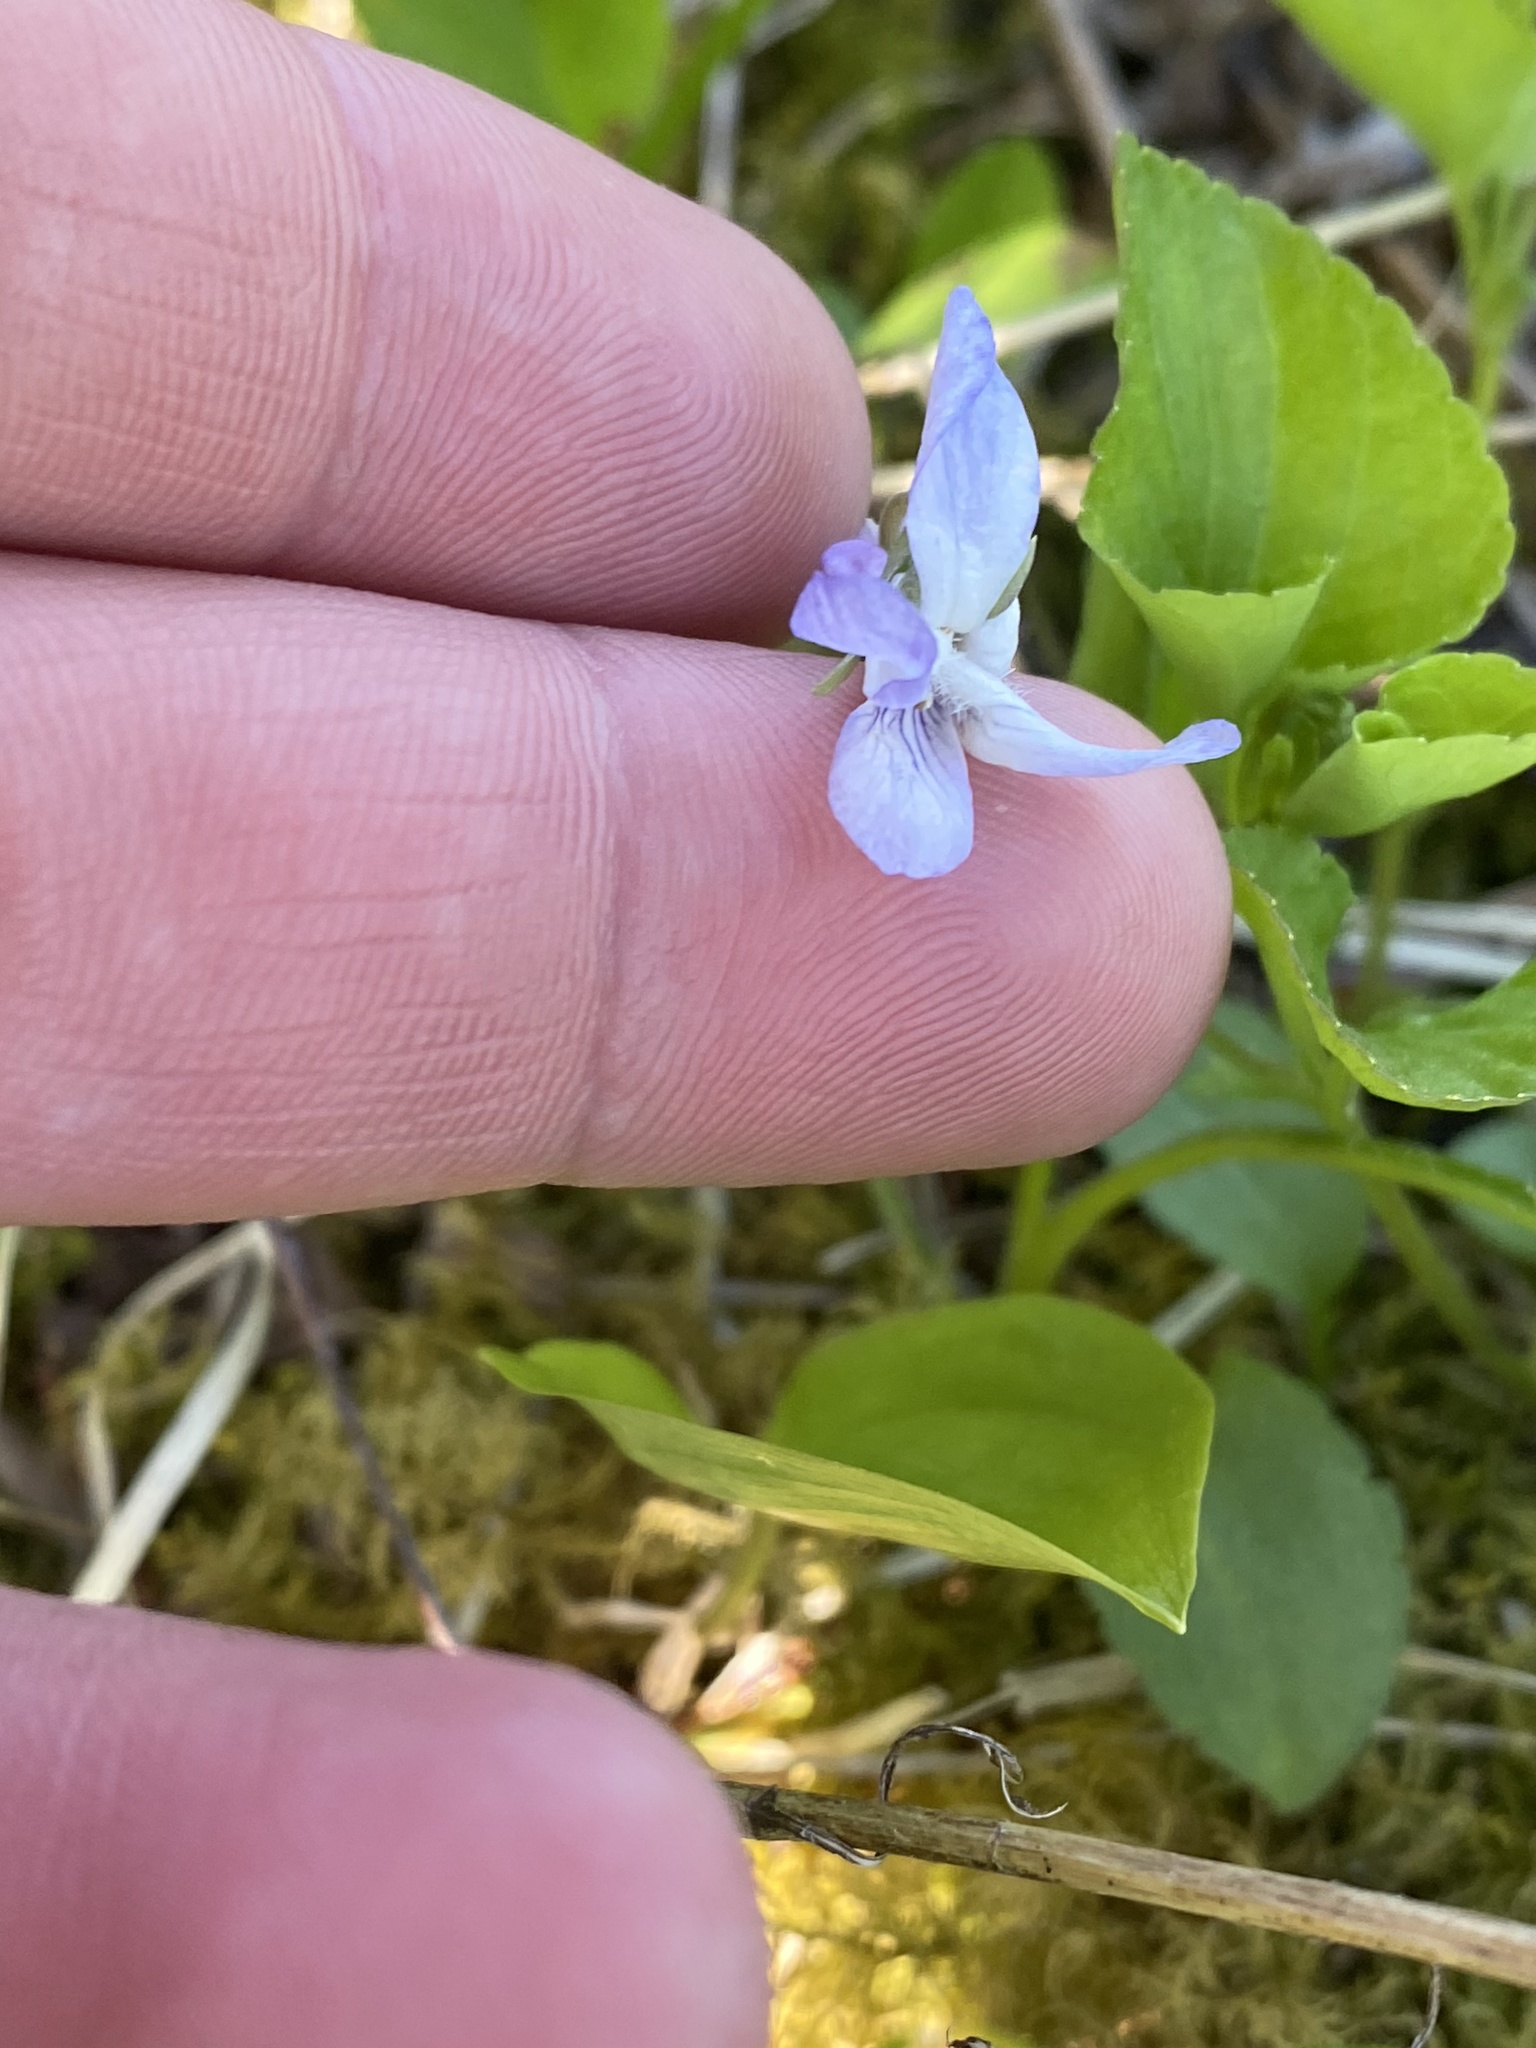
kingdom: Plantae
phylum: Tracheophyta
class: Magnoliopsida
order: Malpighiales
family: Violaceae
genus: Viola
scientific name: Viola labradorica
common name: Labrador violet
